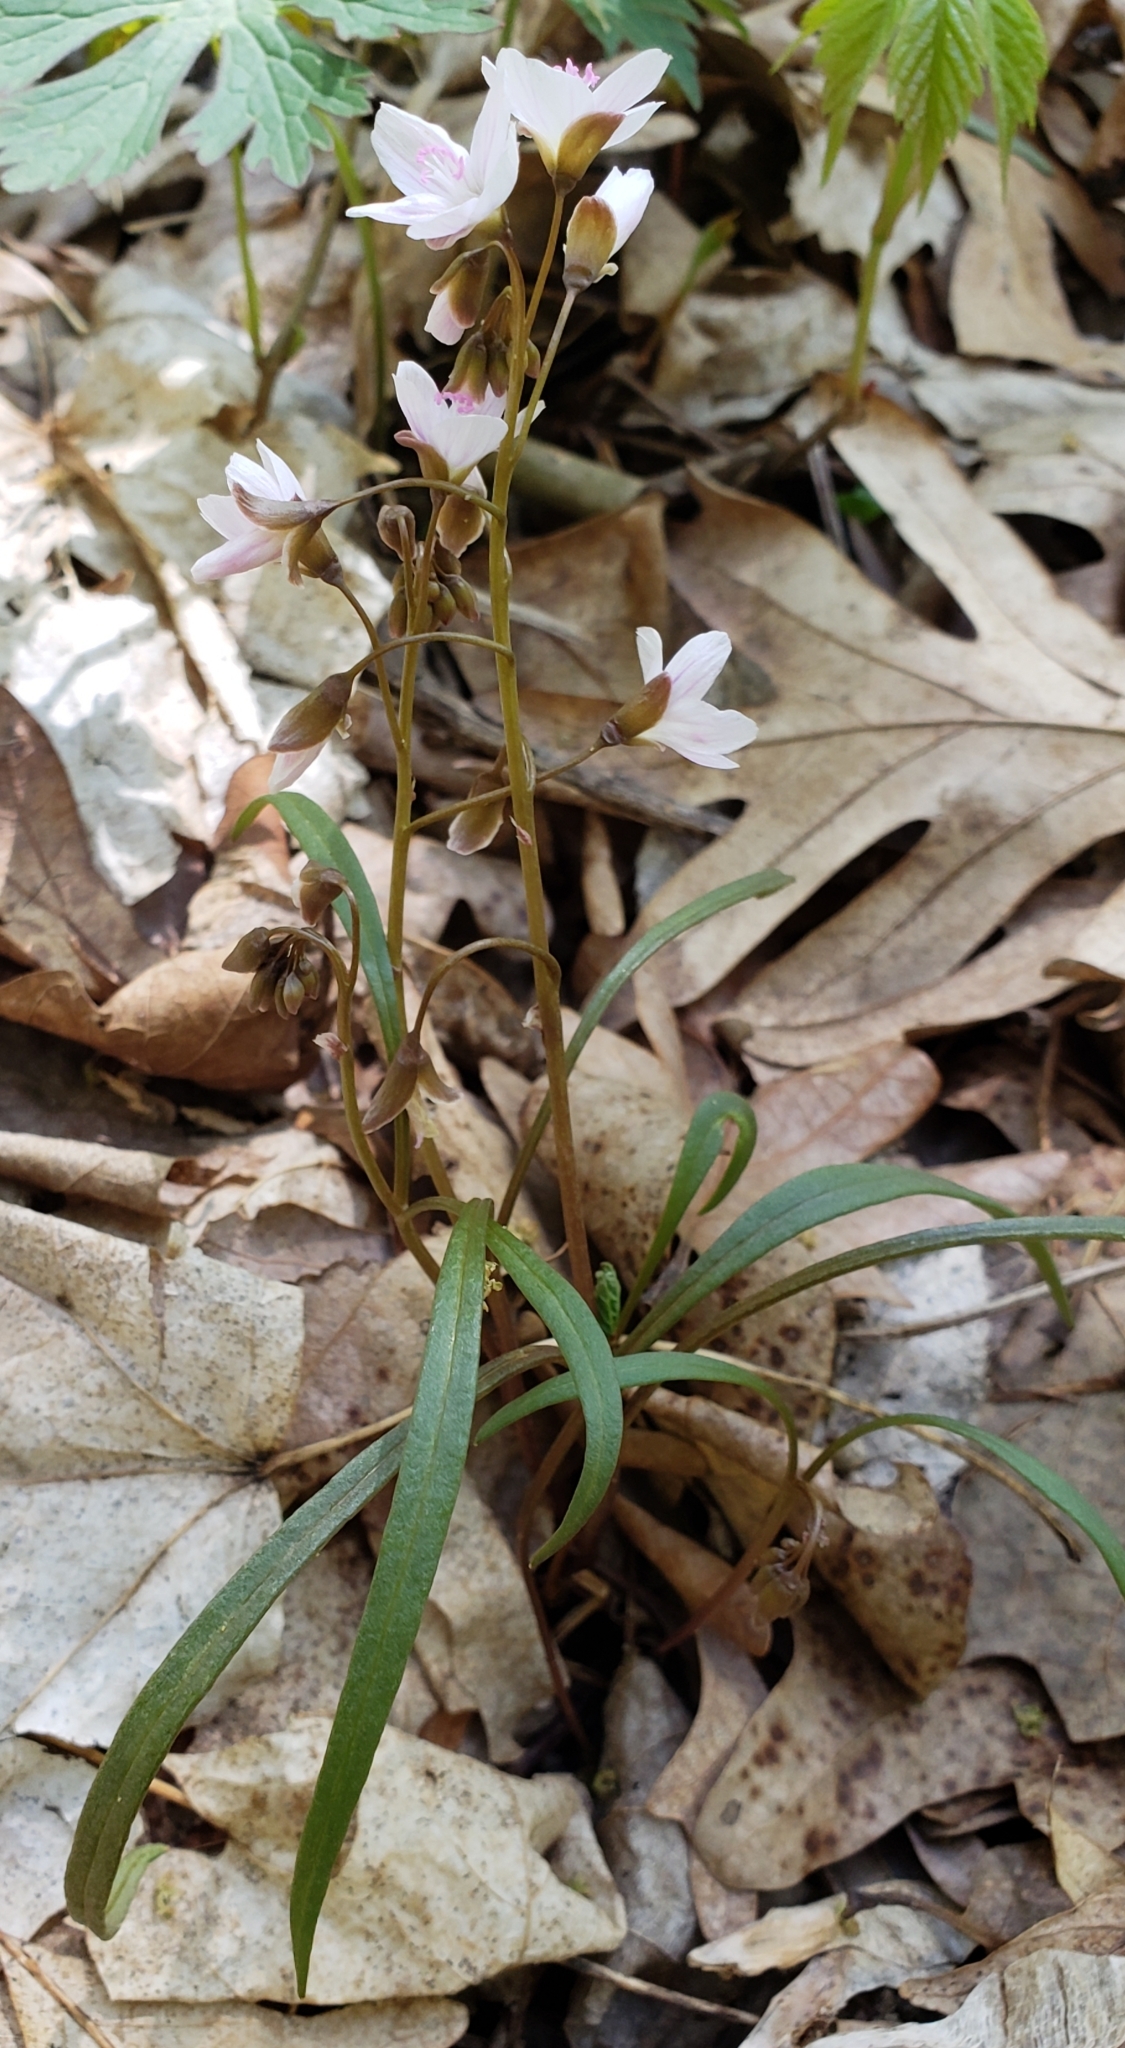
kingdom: Plantae
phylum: Tracheophyta
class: Magnoliopsida
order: Caryophyllales
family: Montiaceae
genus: Claytonia
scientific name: Claytonia virginica
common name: Virginia springbeauty
